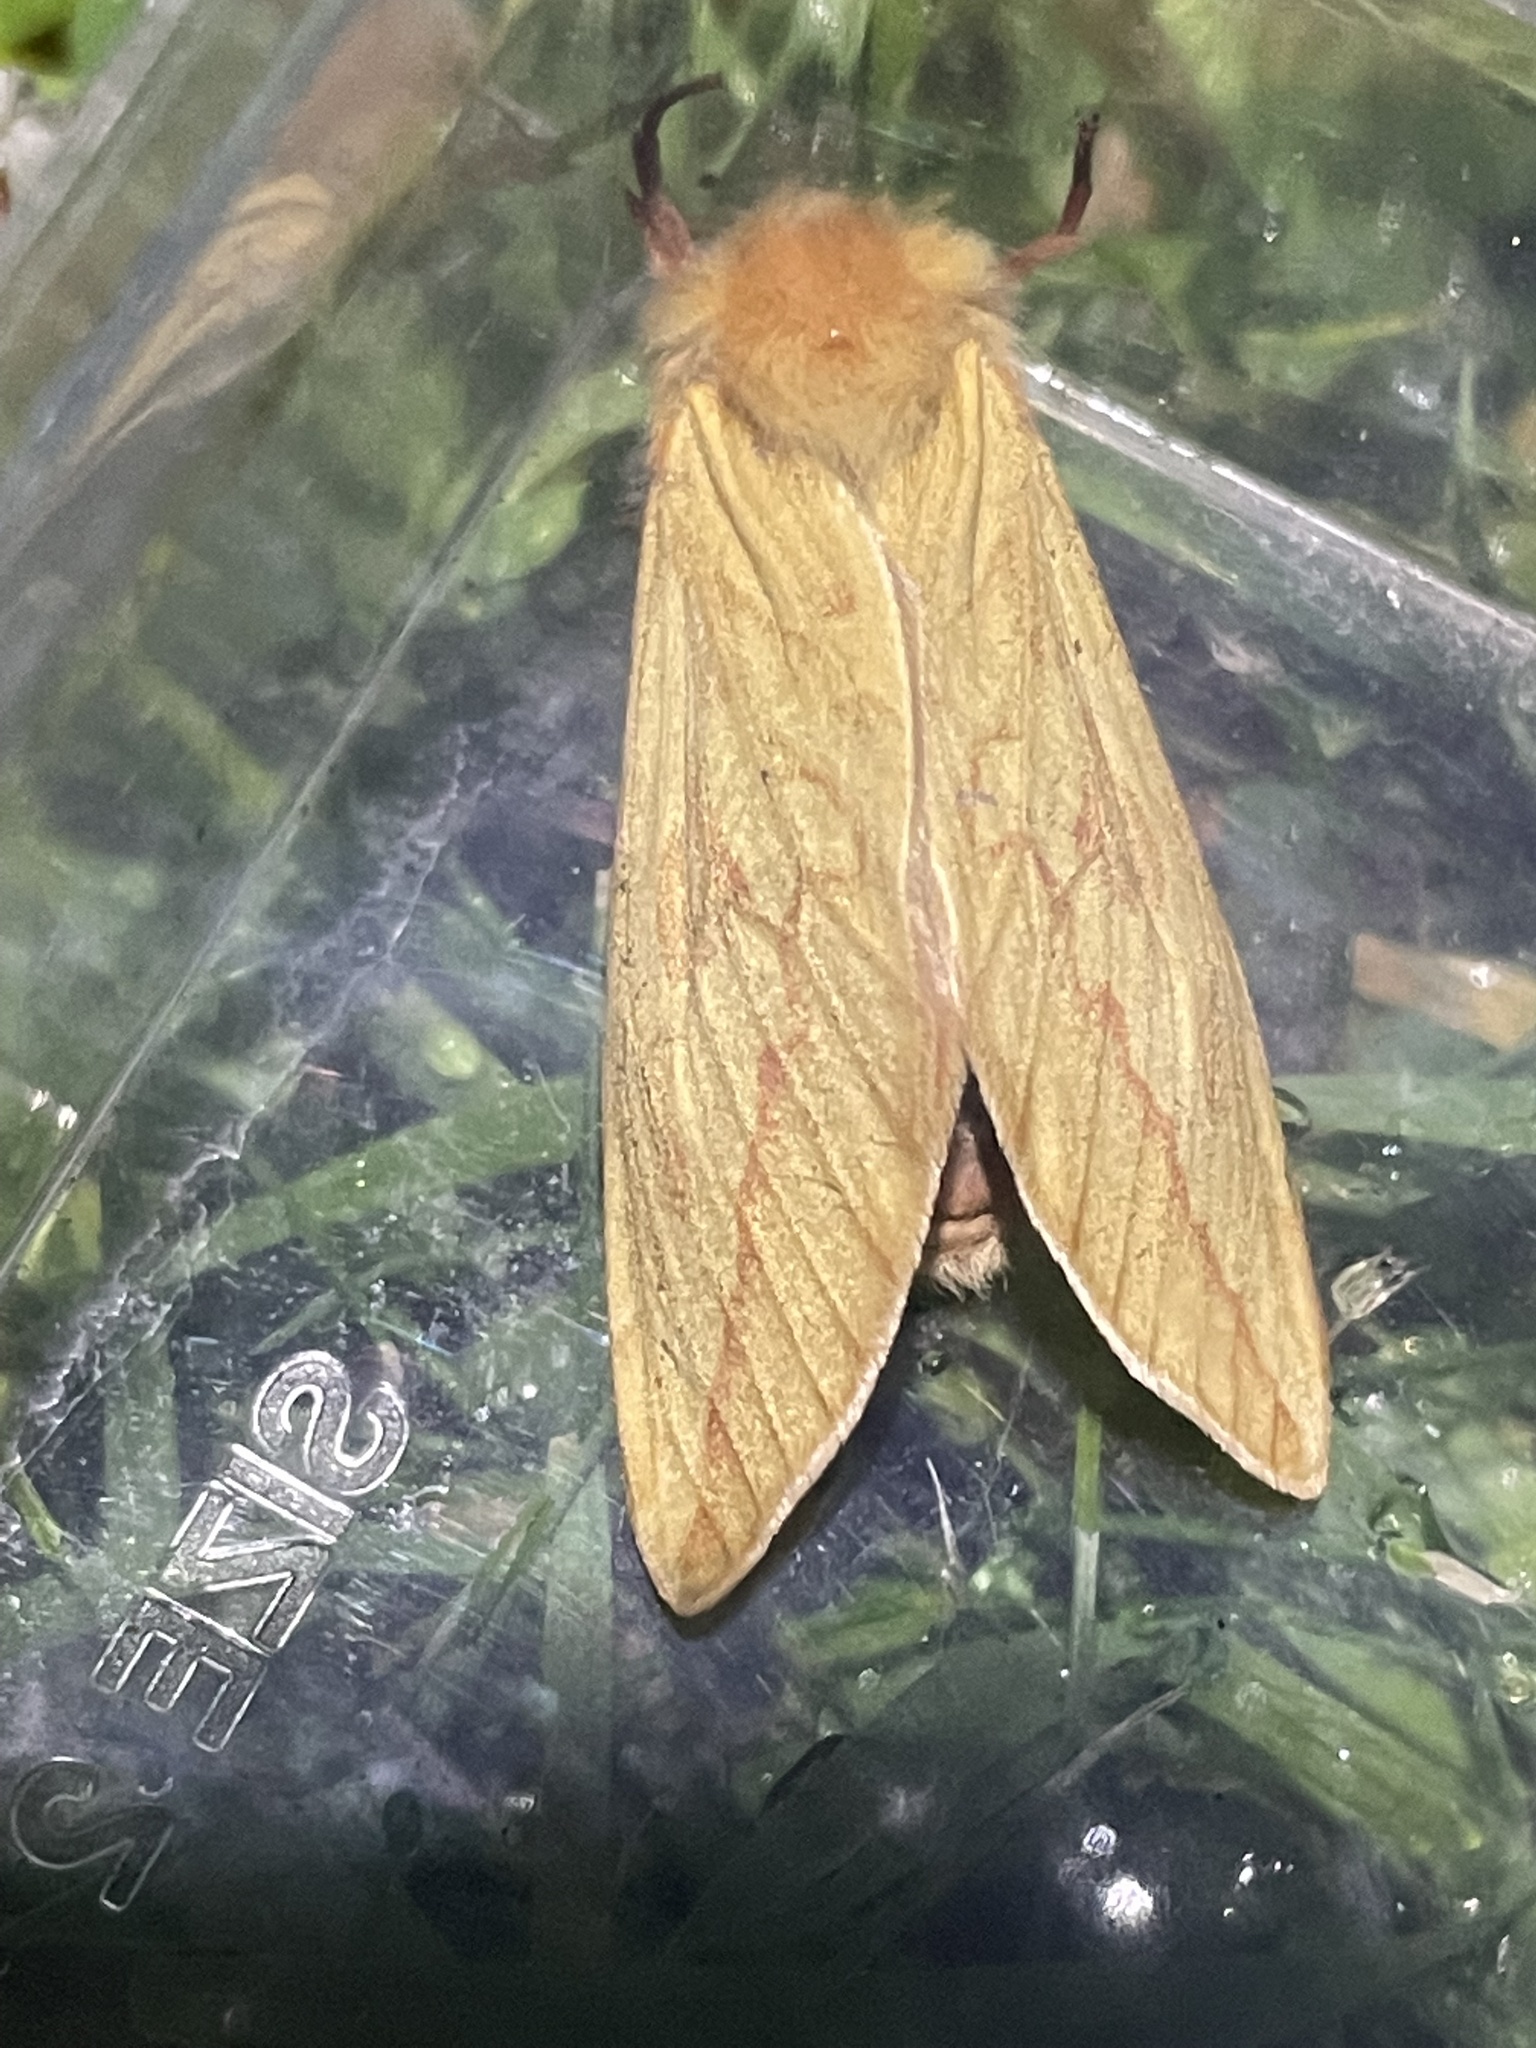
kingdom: Animalia
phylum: Arthropoda
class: Insecta
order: Lepidoptera
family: Hepialidae
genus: Hepialus
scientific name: Hepialus humuli
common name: Ghost moth
